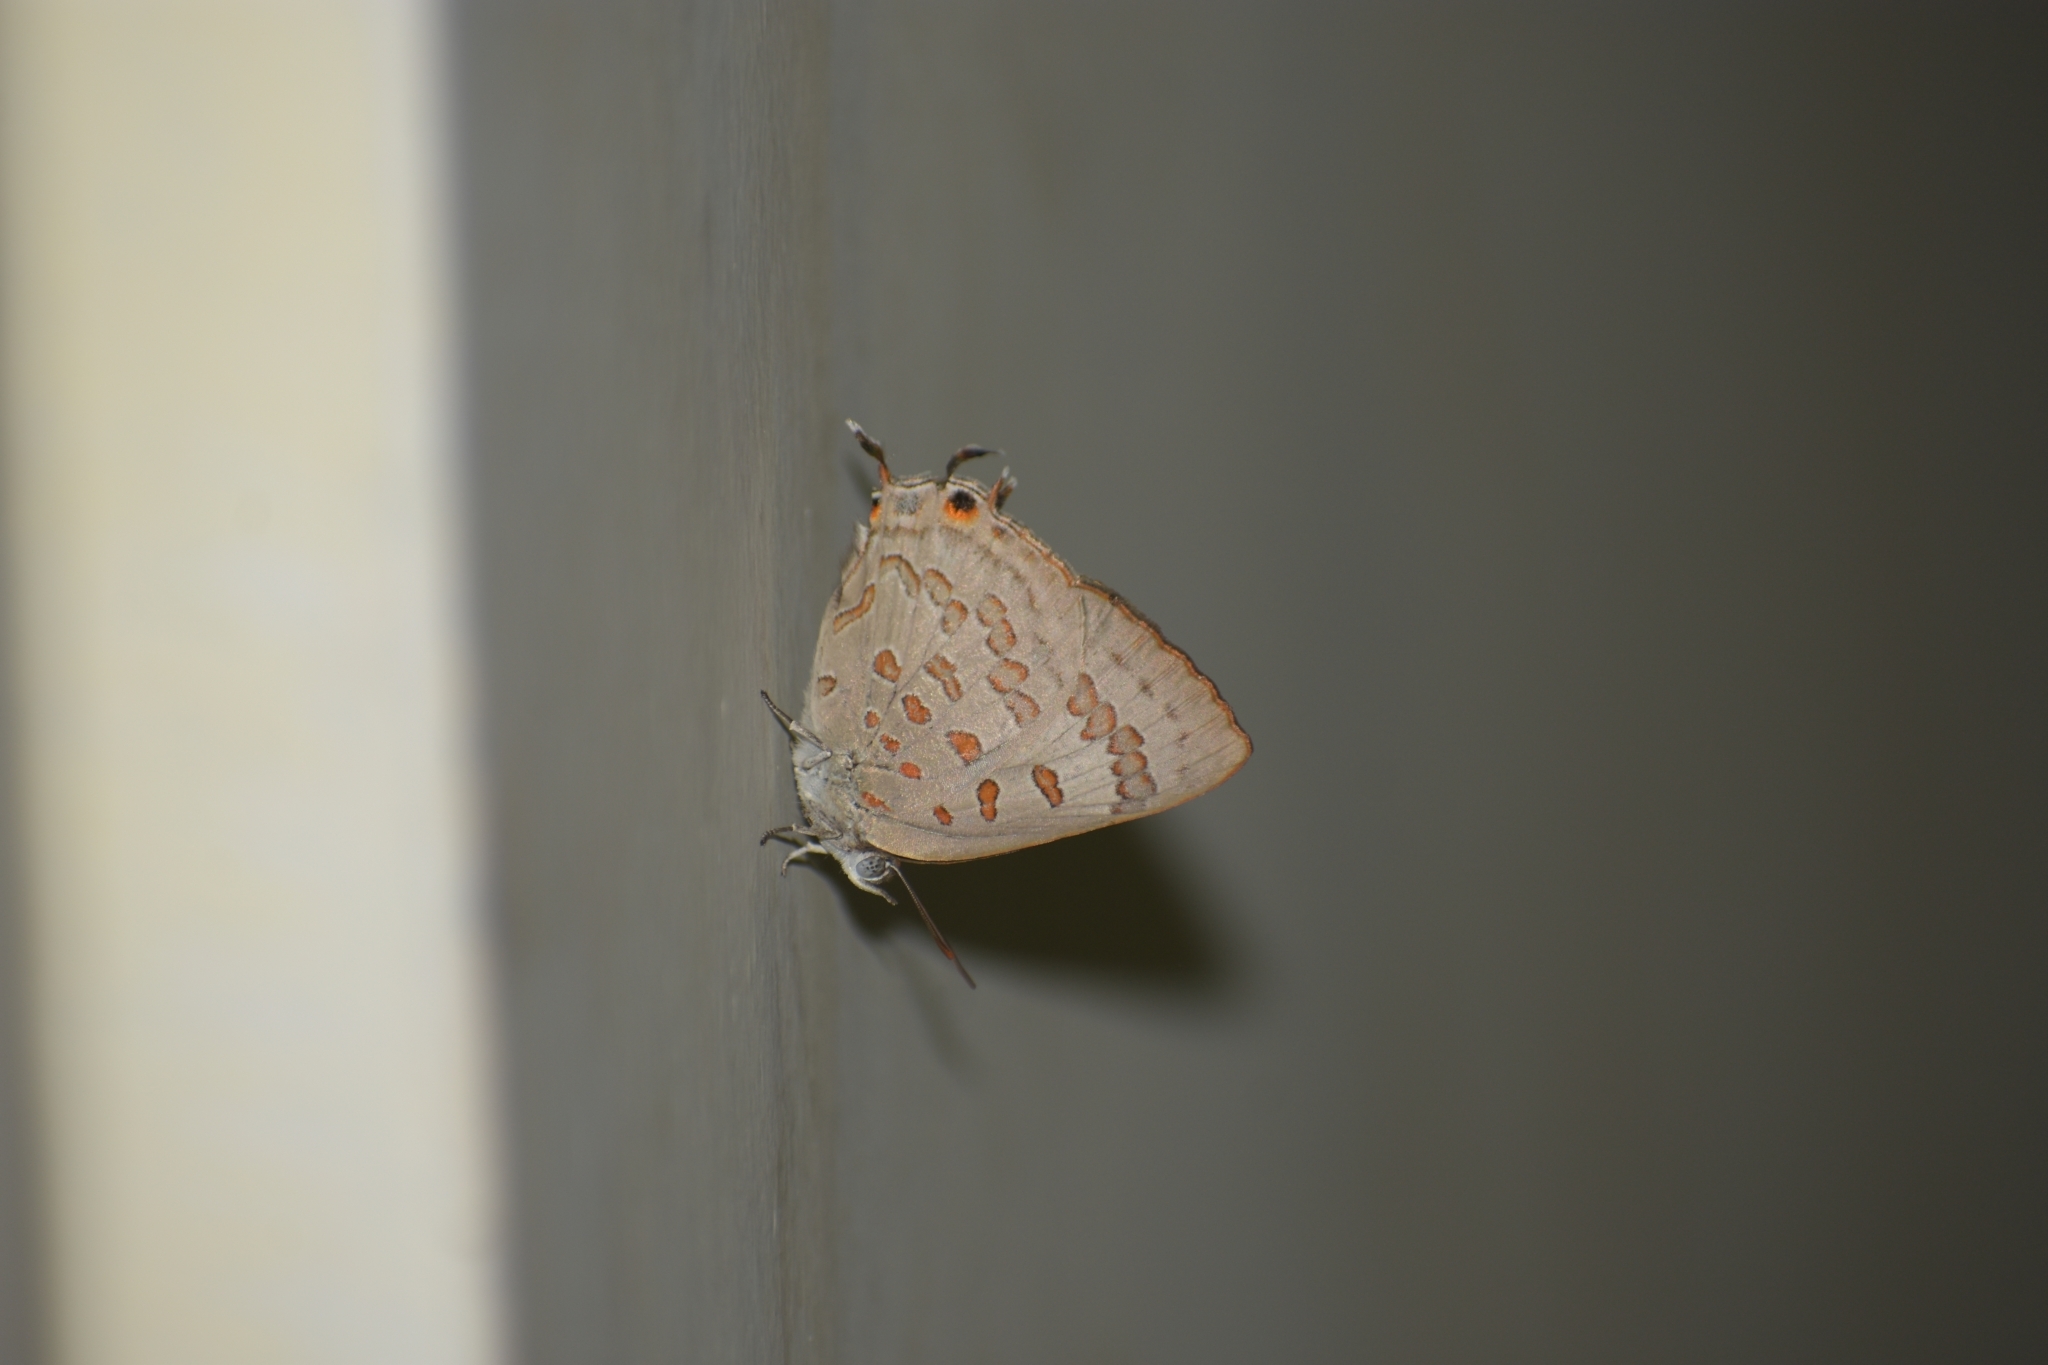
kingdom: Animalia
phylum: Arthropoda
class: Insecta
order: Lepidoptera
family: Lycaenidae
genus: Zesius
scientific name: Zesius chrysomallus
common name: Redspot
